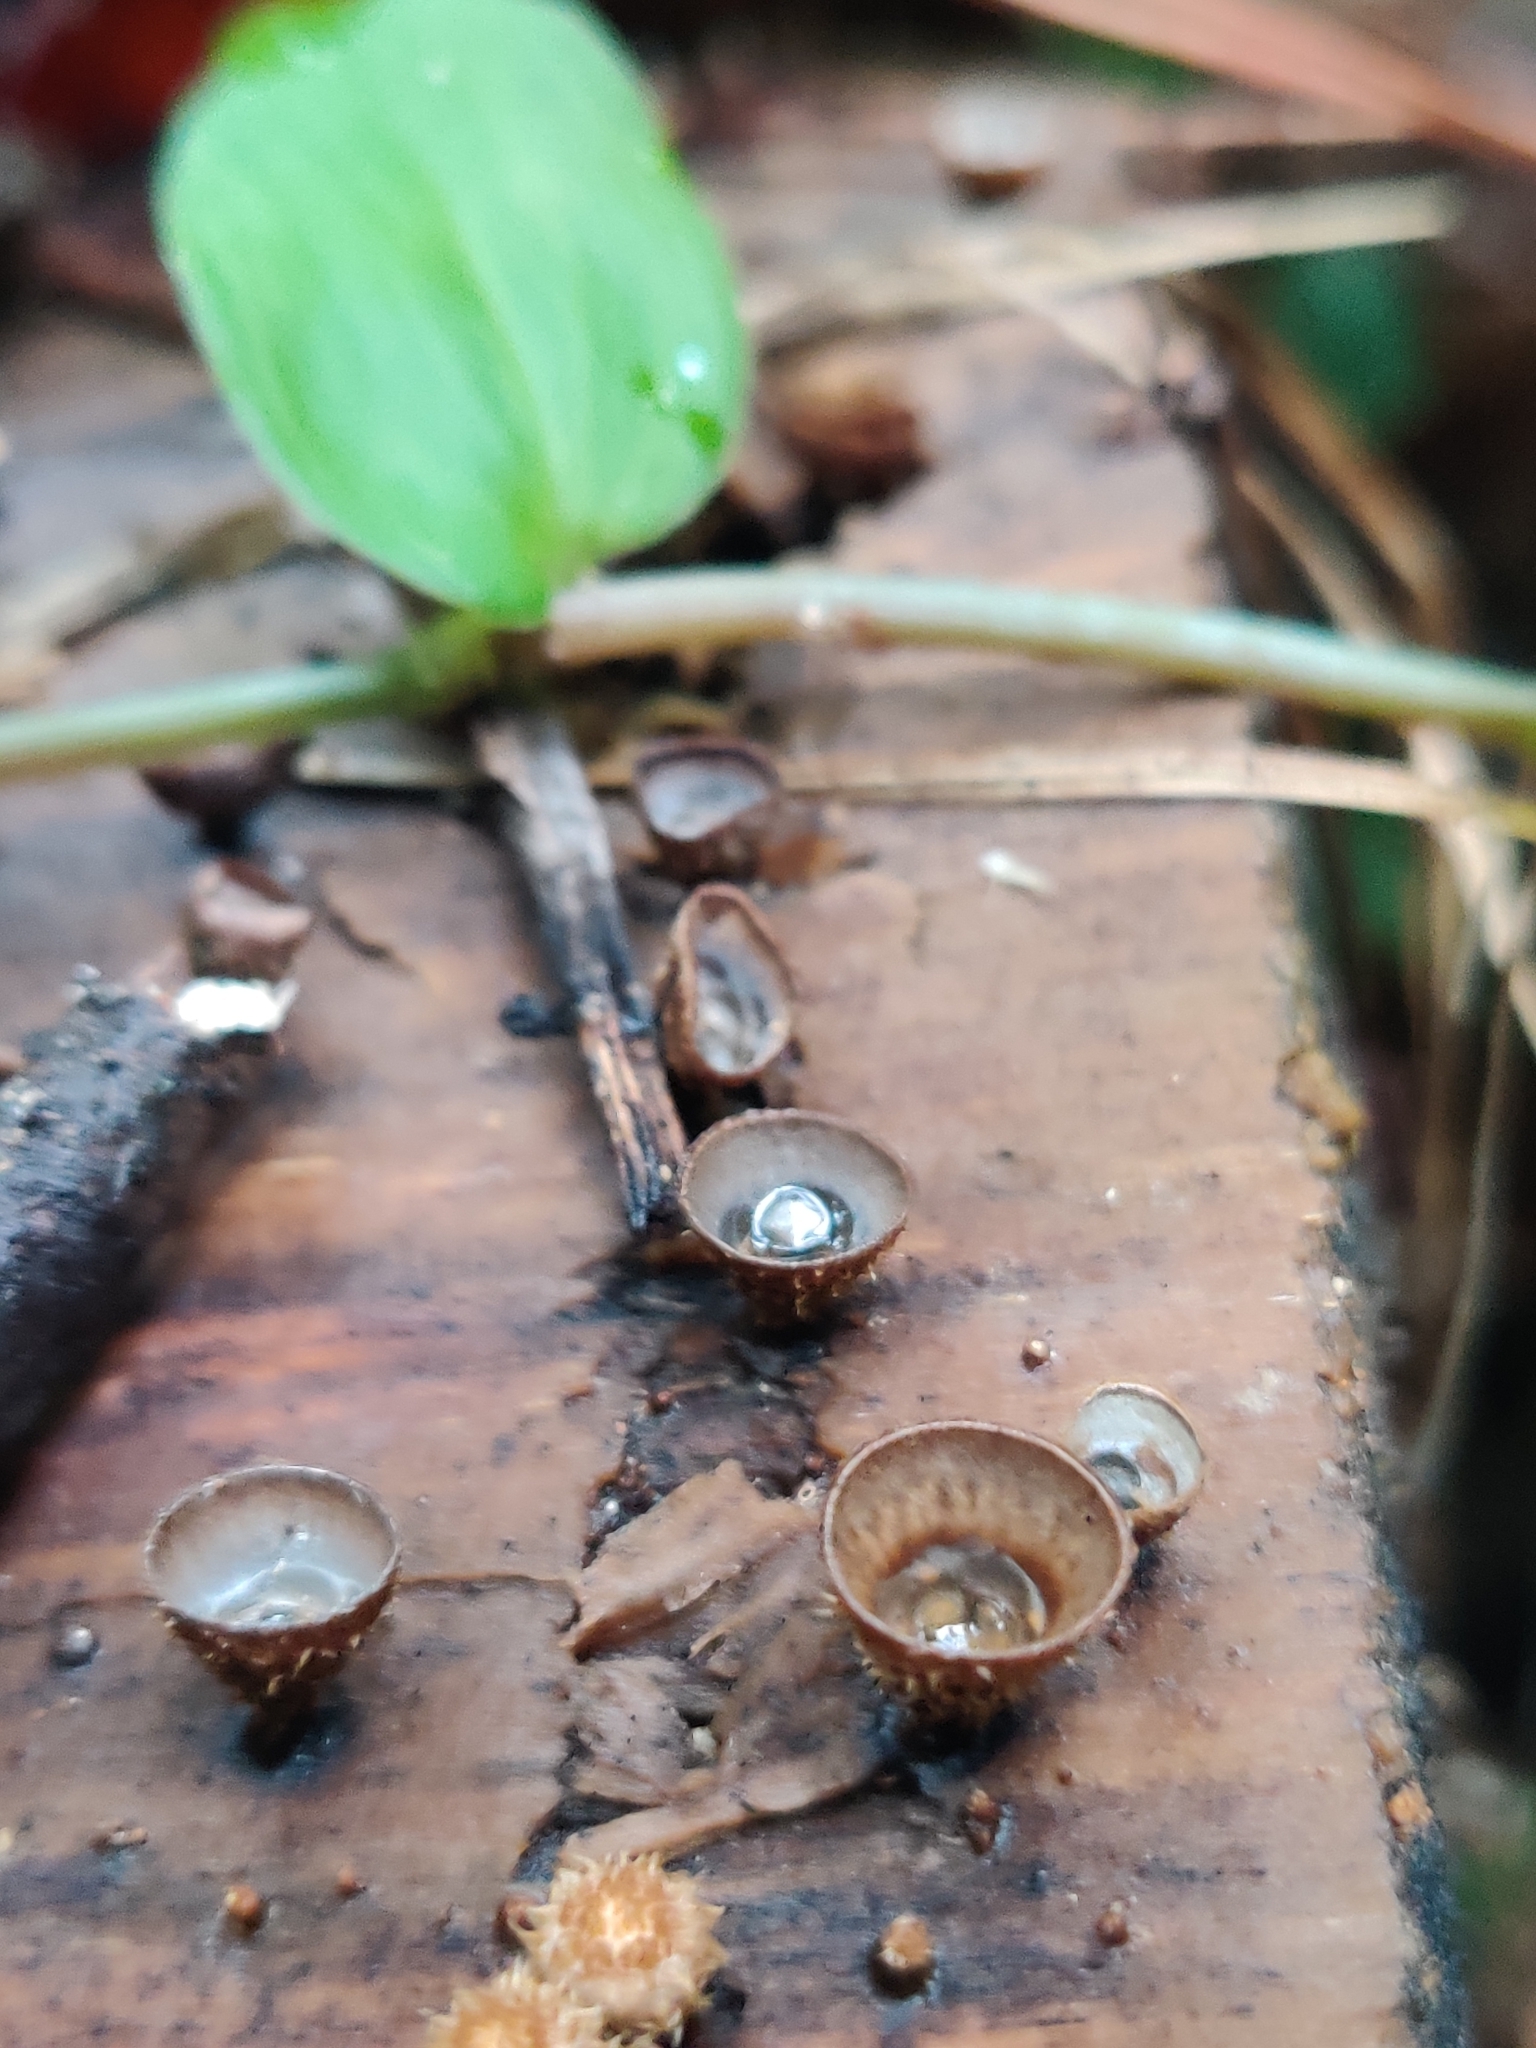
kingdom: Fungi
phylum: Basidiomycota
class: Agaricomycetes
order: Agaricales
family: Agaricaceae
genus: Cyathus
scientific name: Cyathus striatus
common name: Fluted bird's nest
